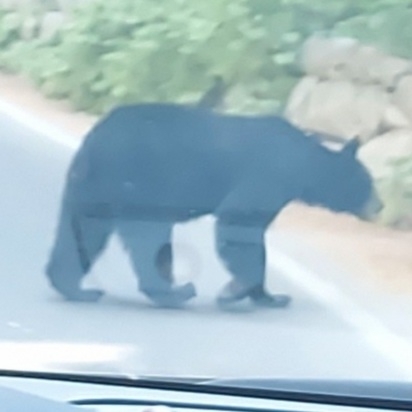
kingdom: Animalia
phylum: Chordata
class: Mammalia
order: Carnivora
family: Ursidae
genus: Ursus
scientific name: Ursus americanus
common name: American black bear
